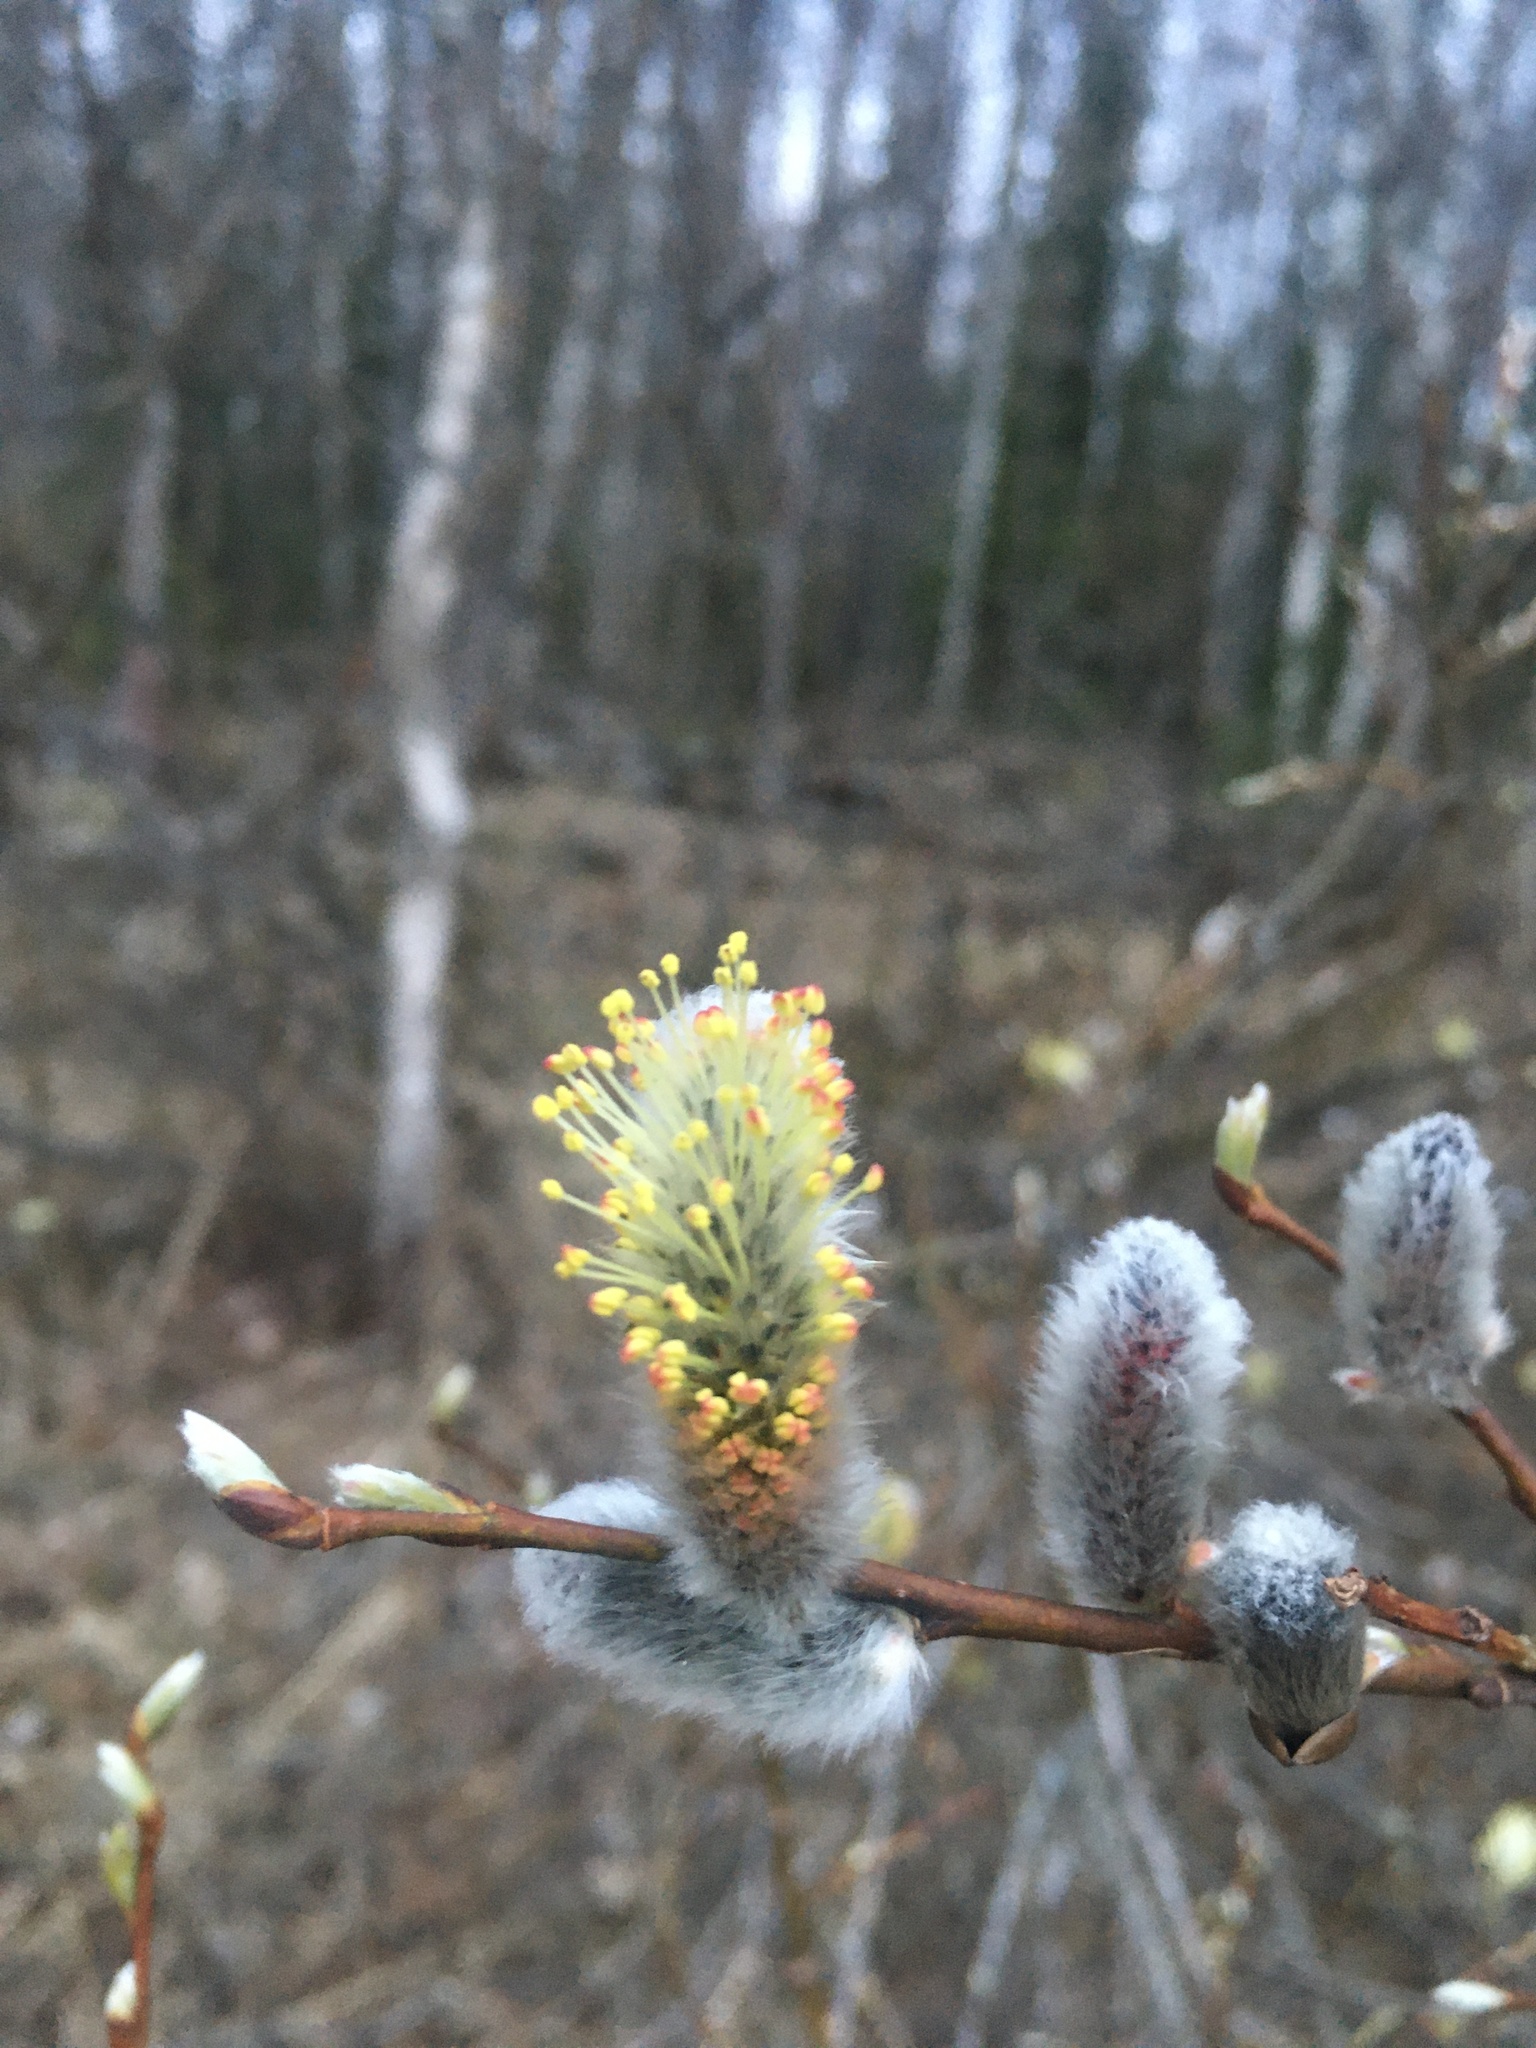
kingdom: Plantae
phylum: Tracheophyta
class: Magnoliopsida
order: Malpighiales
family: Salicaceae
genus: Salix
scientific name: Salix caprea
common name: Goat willow
